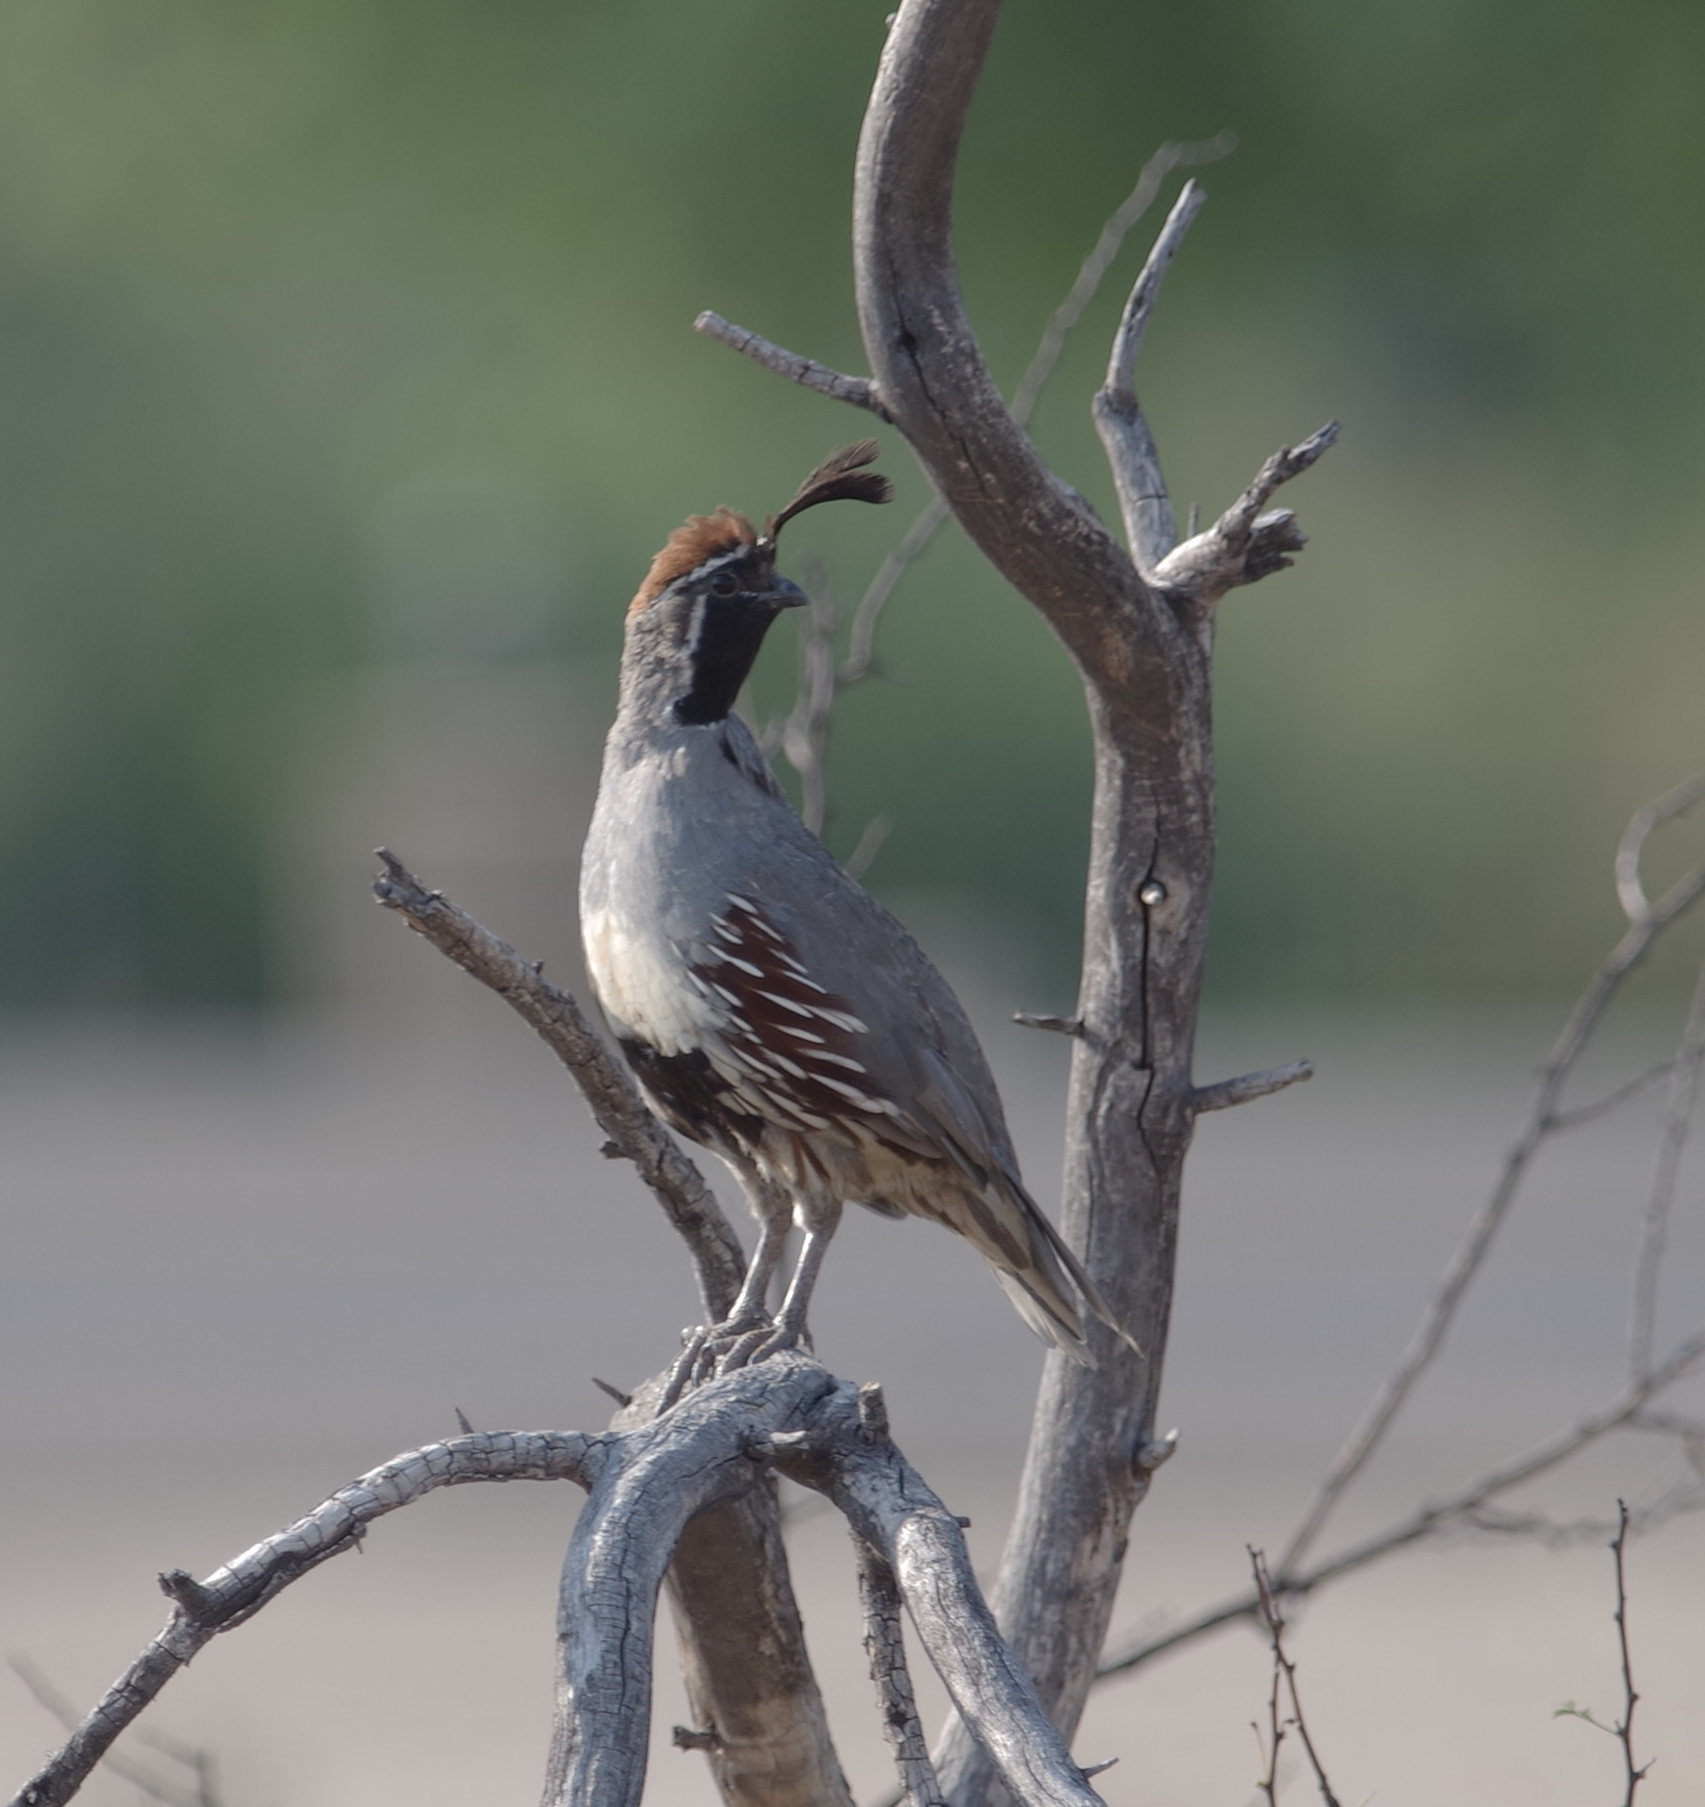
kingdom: Animalia
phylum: Chordata
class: Aves
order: Galliformes
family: Odontophoridae
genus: Callipepla
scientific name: Callipepla gambelii
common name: Gambel's quail
